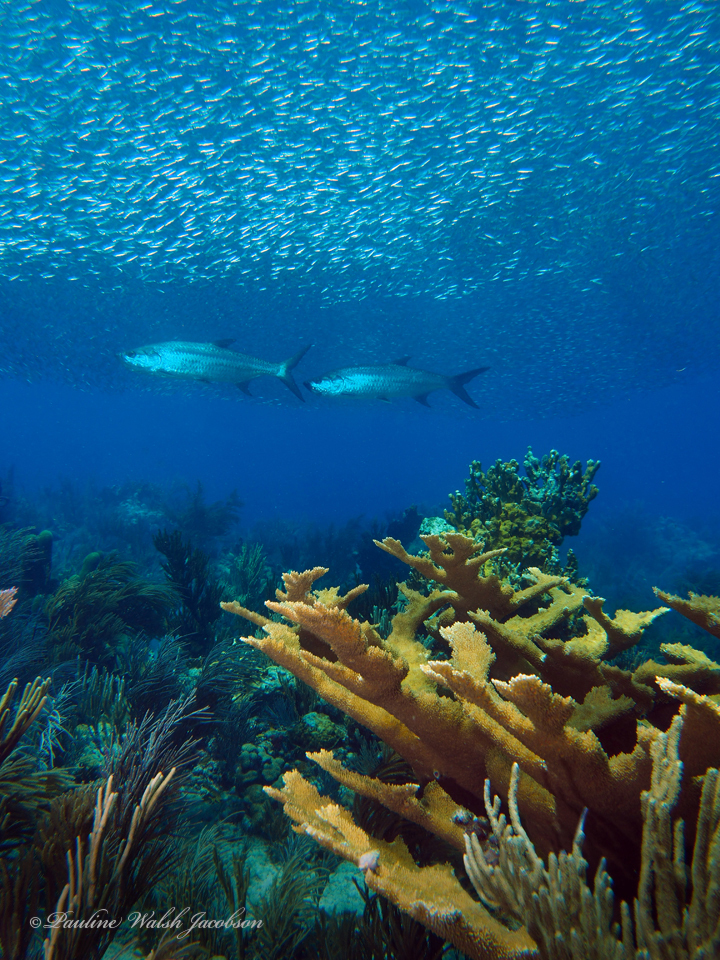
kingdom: Animalia
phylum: Chordata
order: Elopiformes
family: Megalopidae
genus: Megalops
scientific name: Megalops atlanticus
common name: Tarpon
